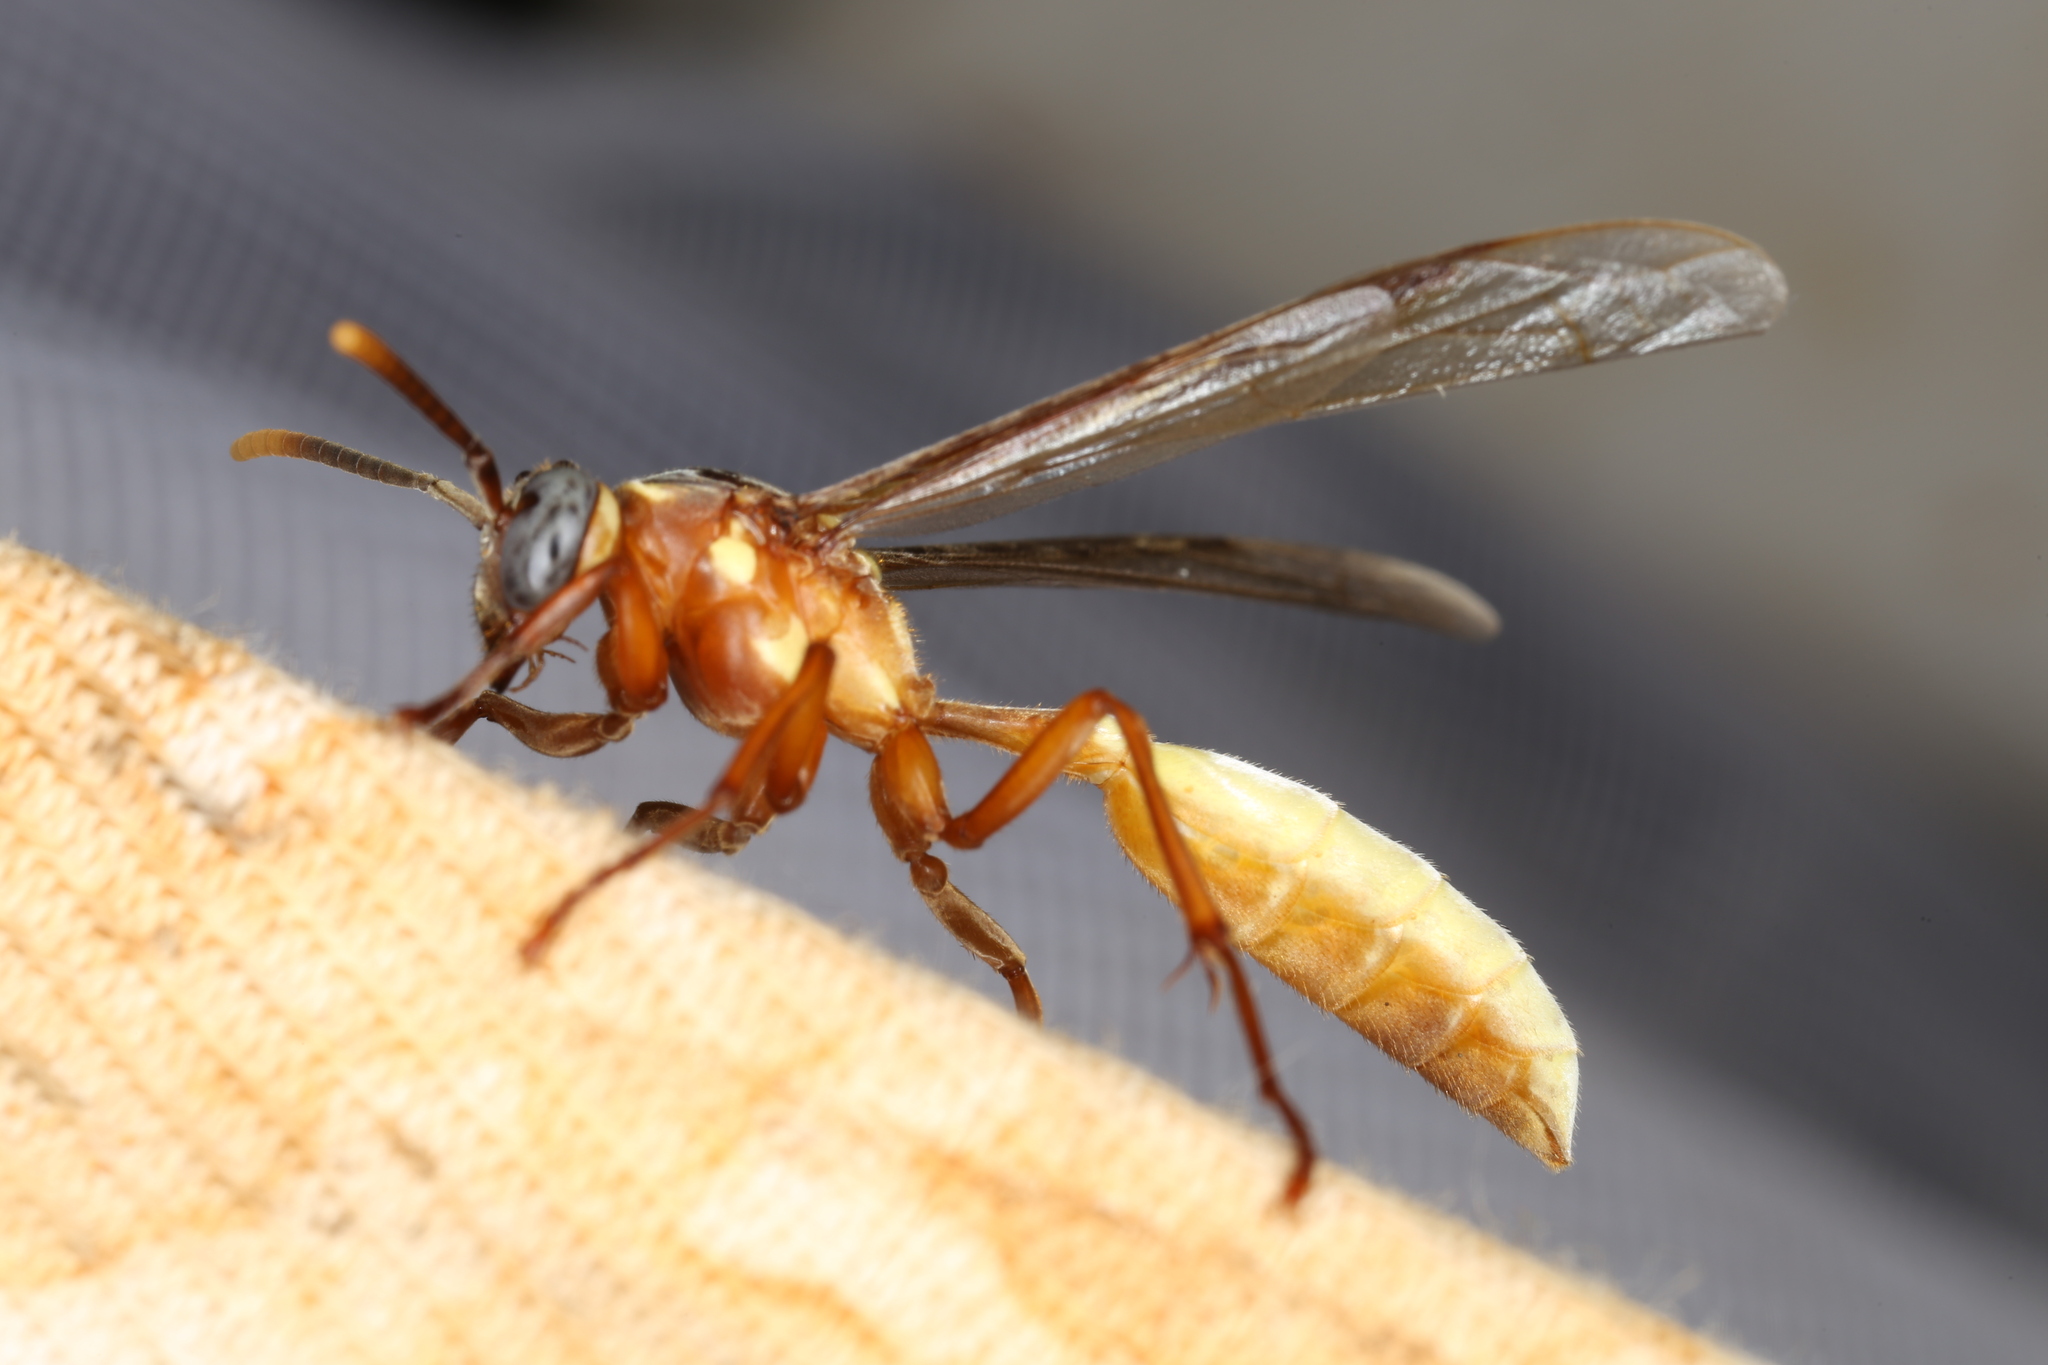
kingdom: Animalia
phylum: Arthropoda
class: Insecta
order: Hymenoptera
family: Vespidae
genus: Apoica
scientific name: Apoica pallens
